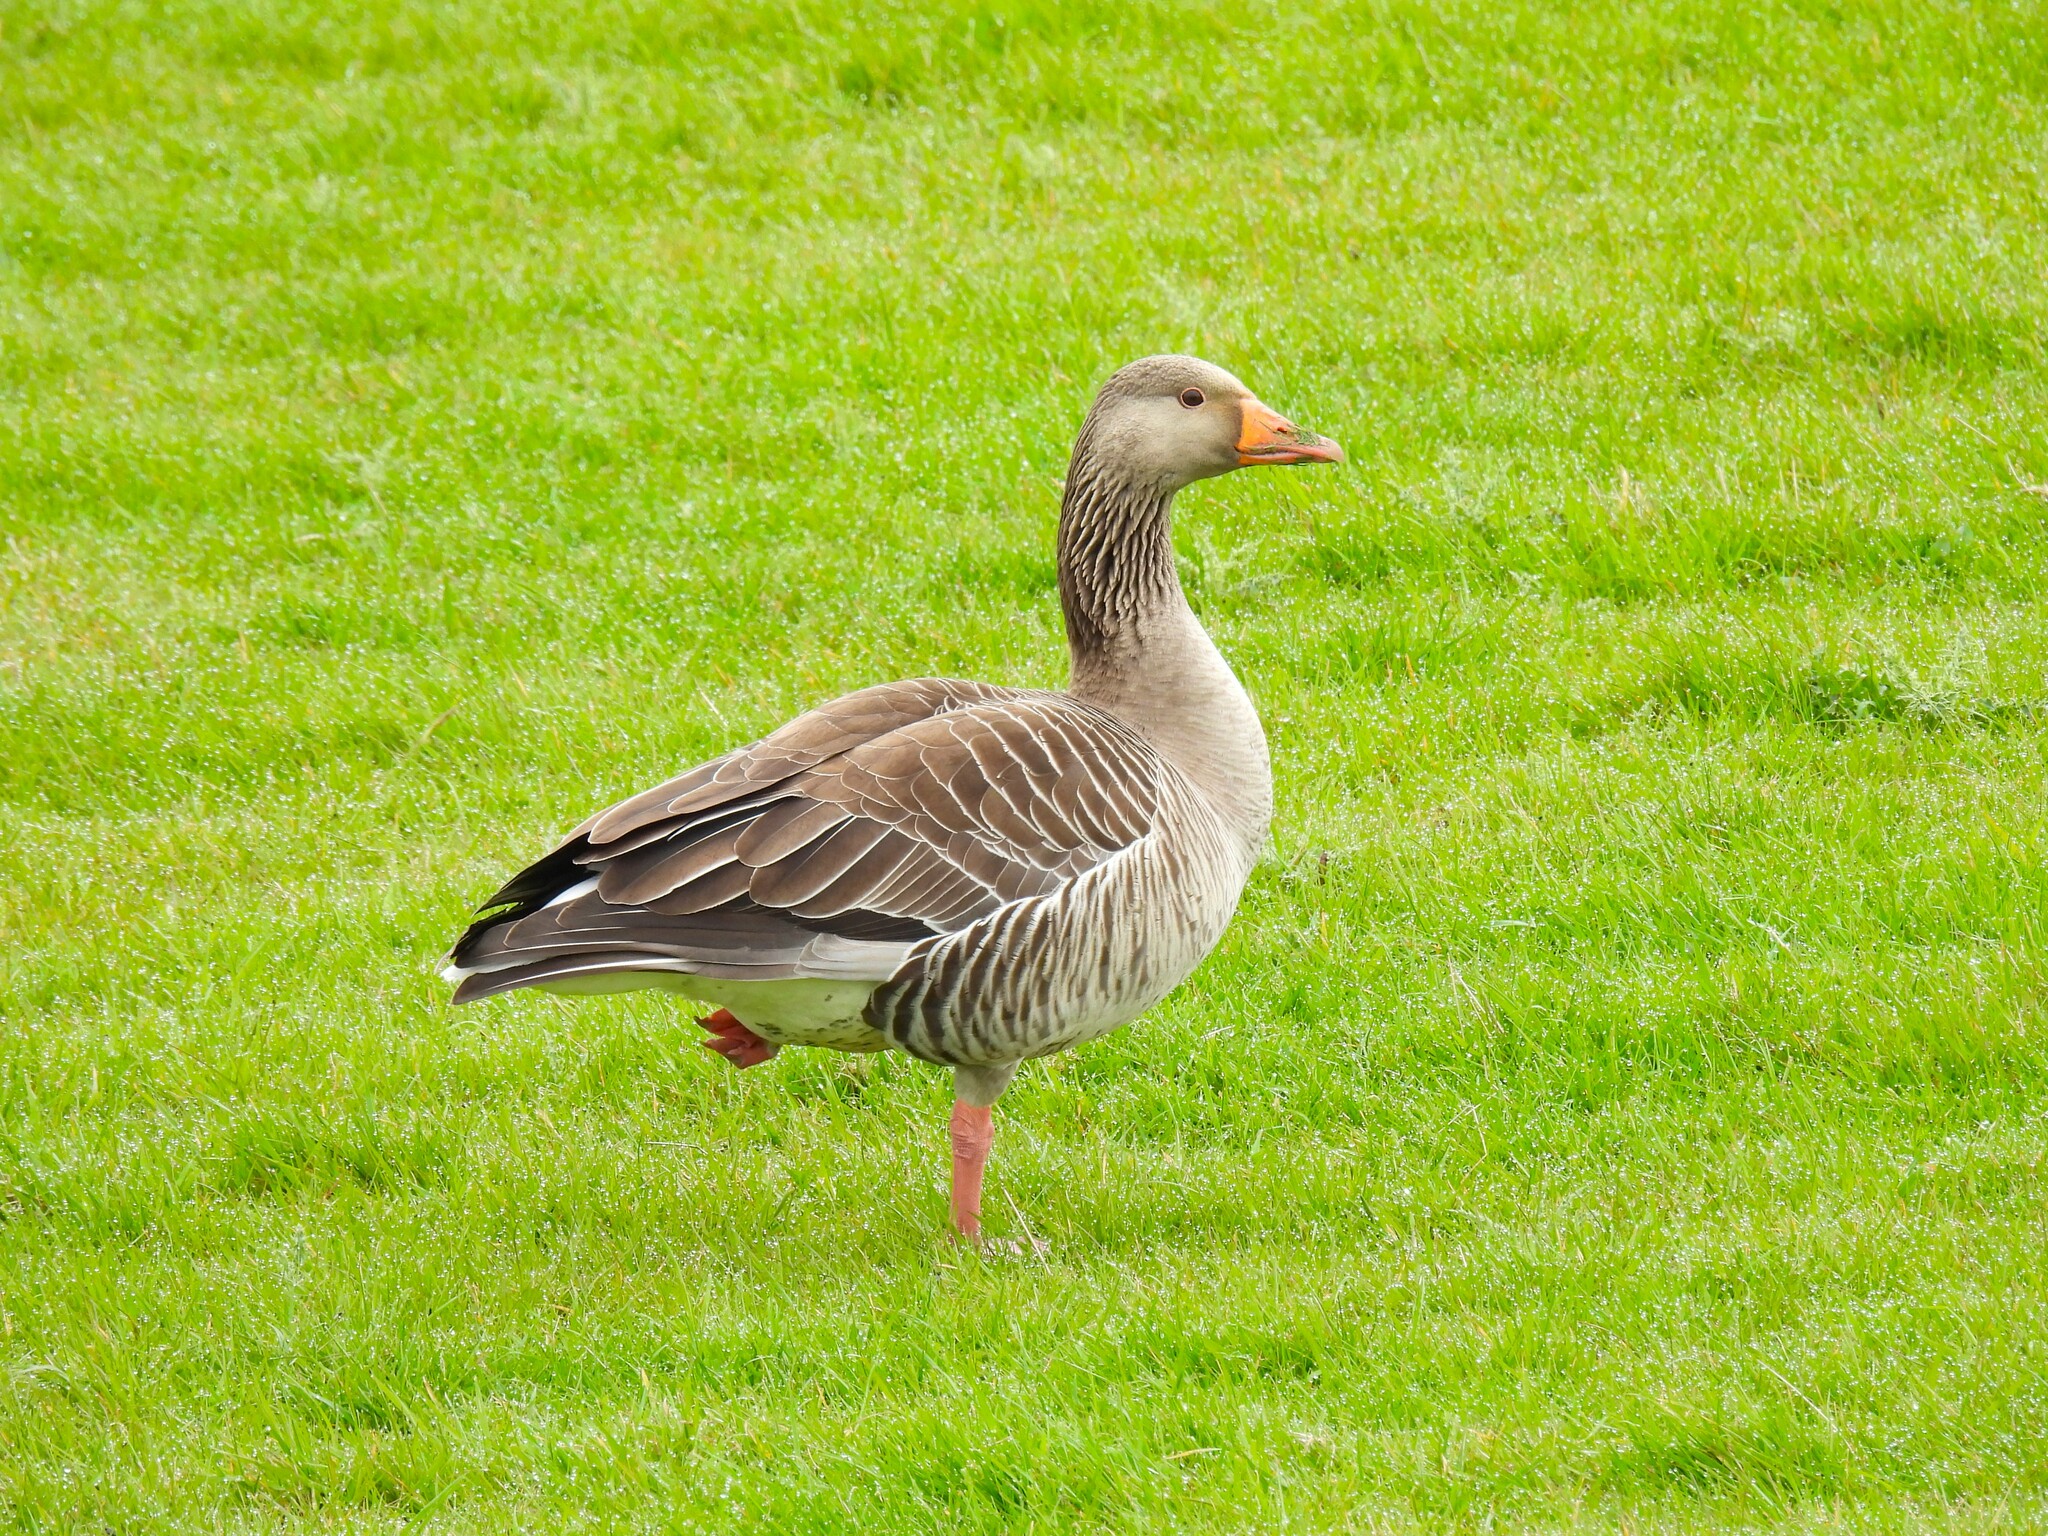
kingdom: Animalia
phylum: Chordata
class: Aves
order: Anseriformes
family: Anatidae
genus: Anser
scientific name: Anser anser
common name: Greylag goose
